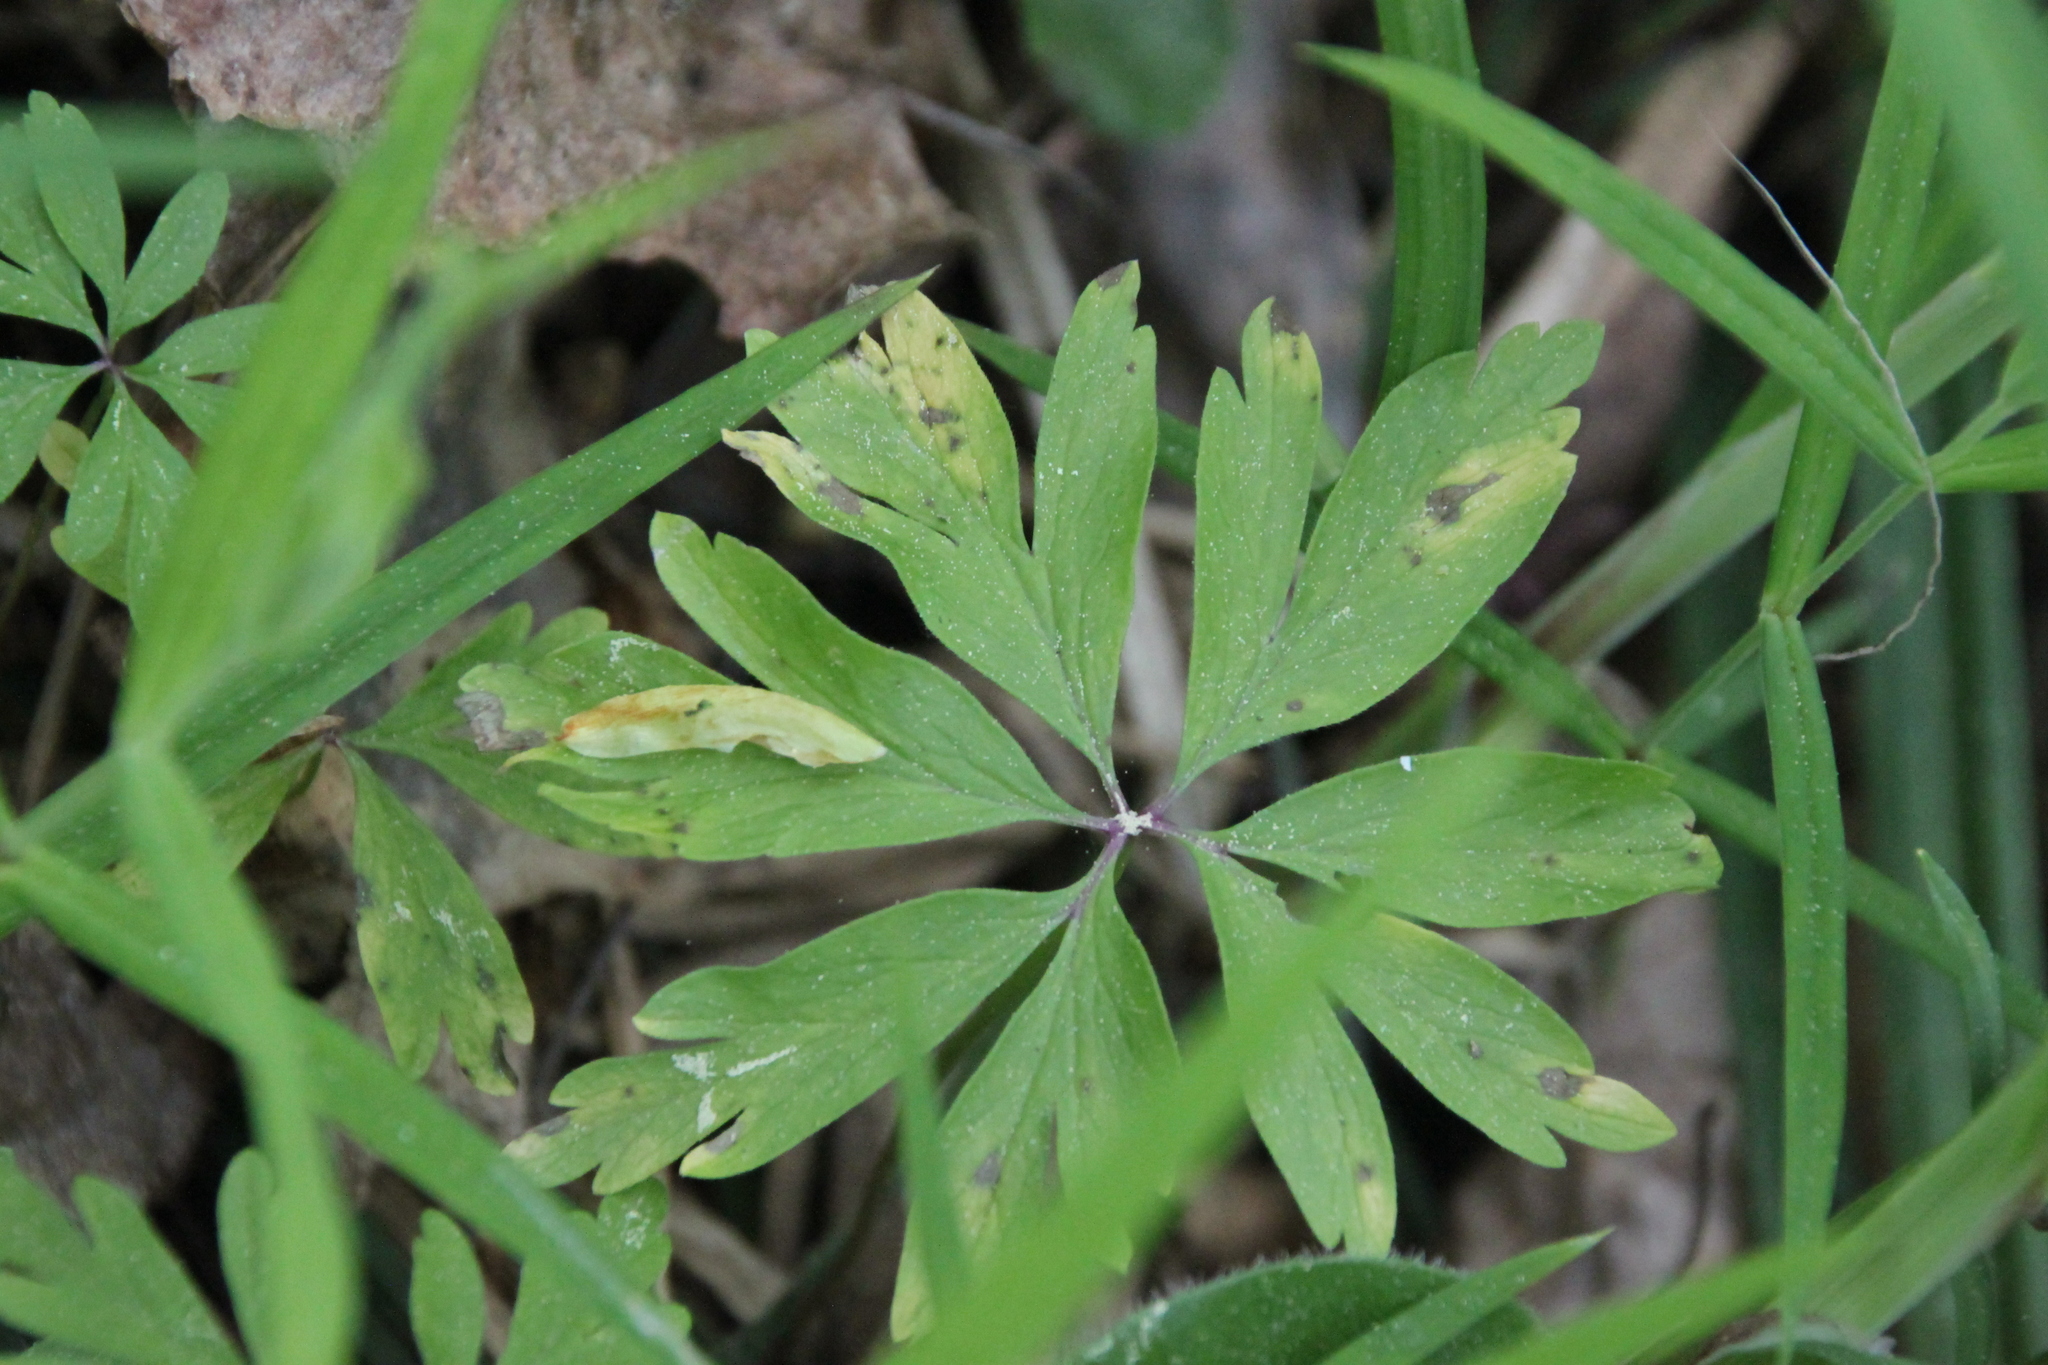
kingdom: Plantae
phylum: Tracheophyta
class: Magnoliopsida
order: Ranunculales
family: Ranunculaceae
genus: Anemone
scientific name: Anemone ranunculoides
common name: Yellow anemone
